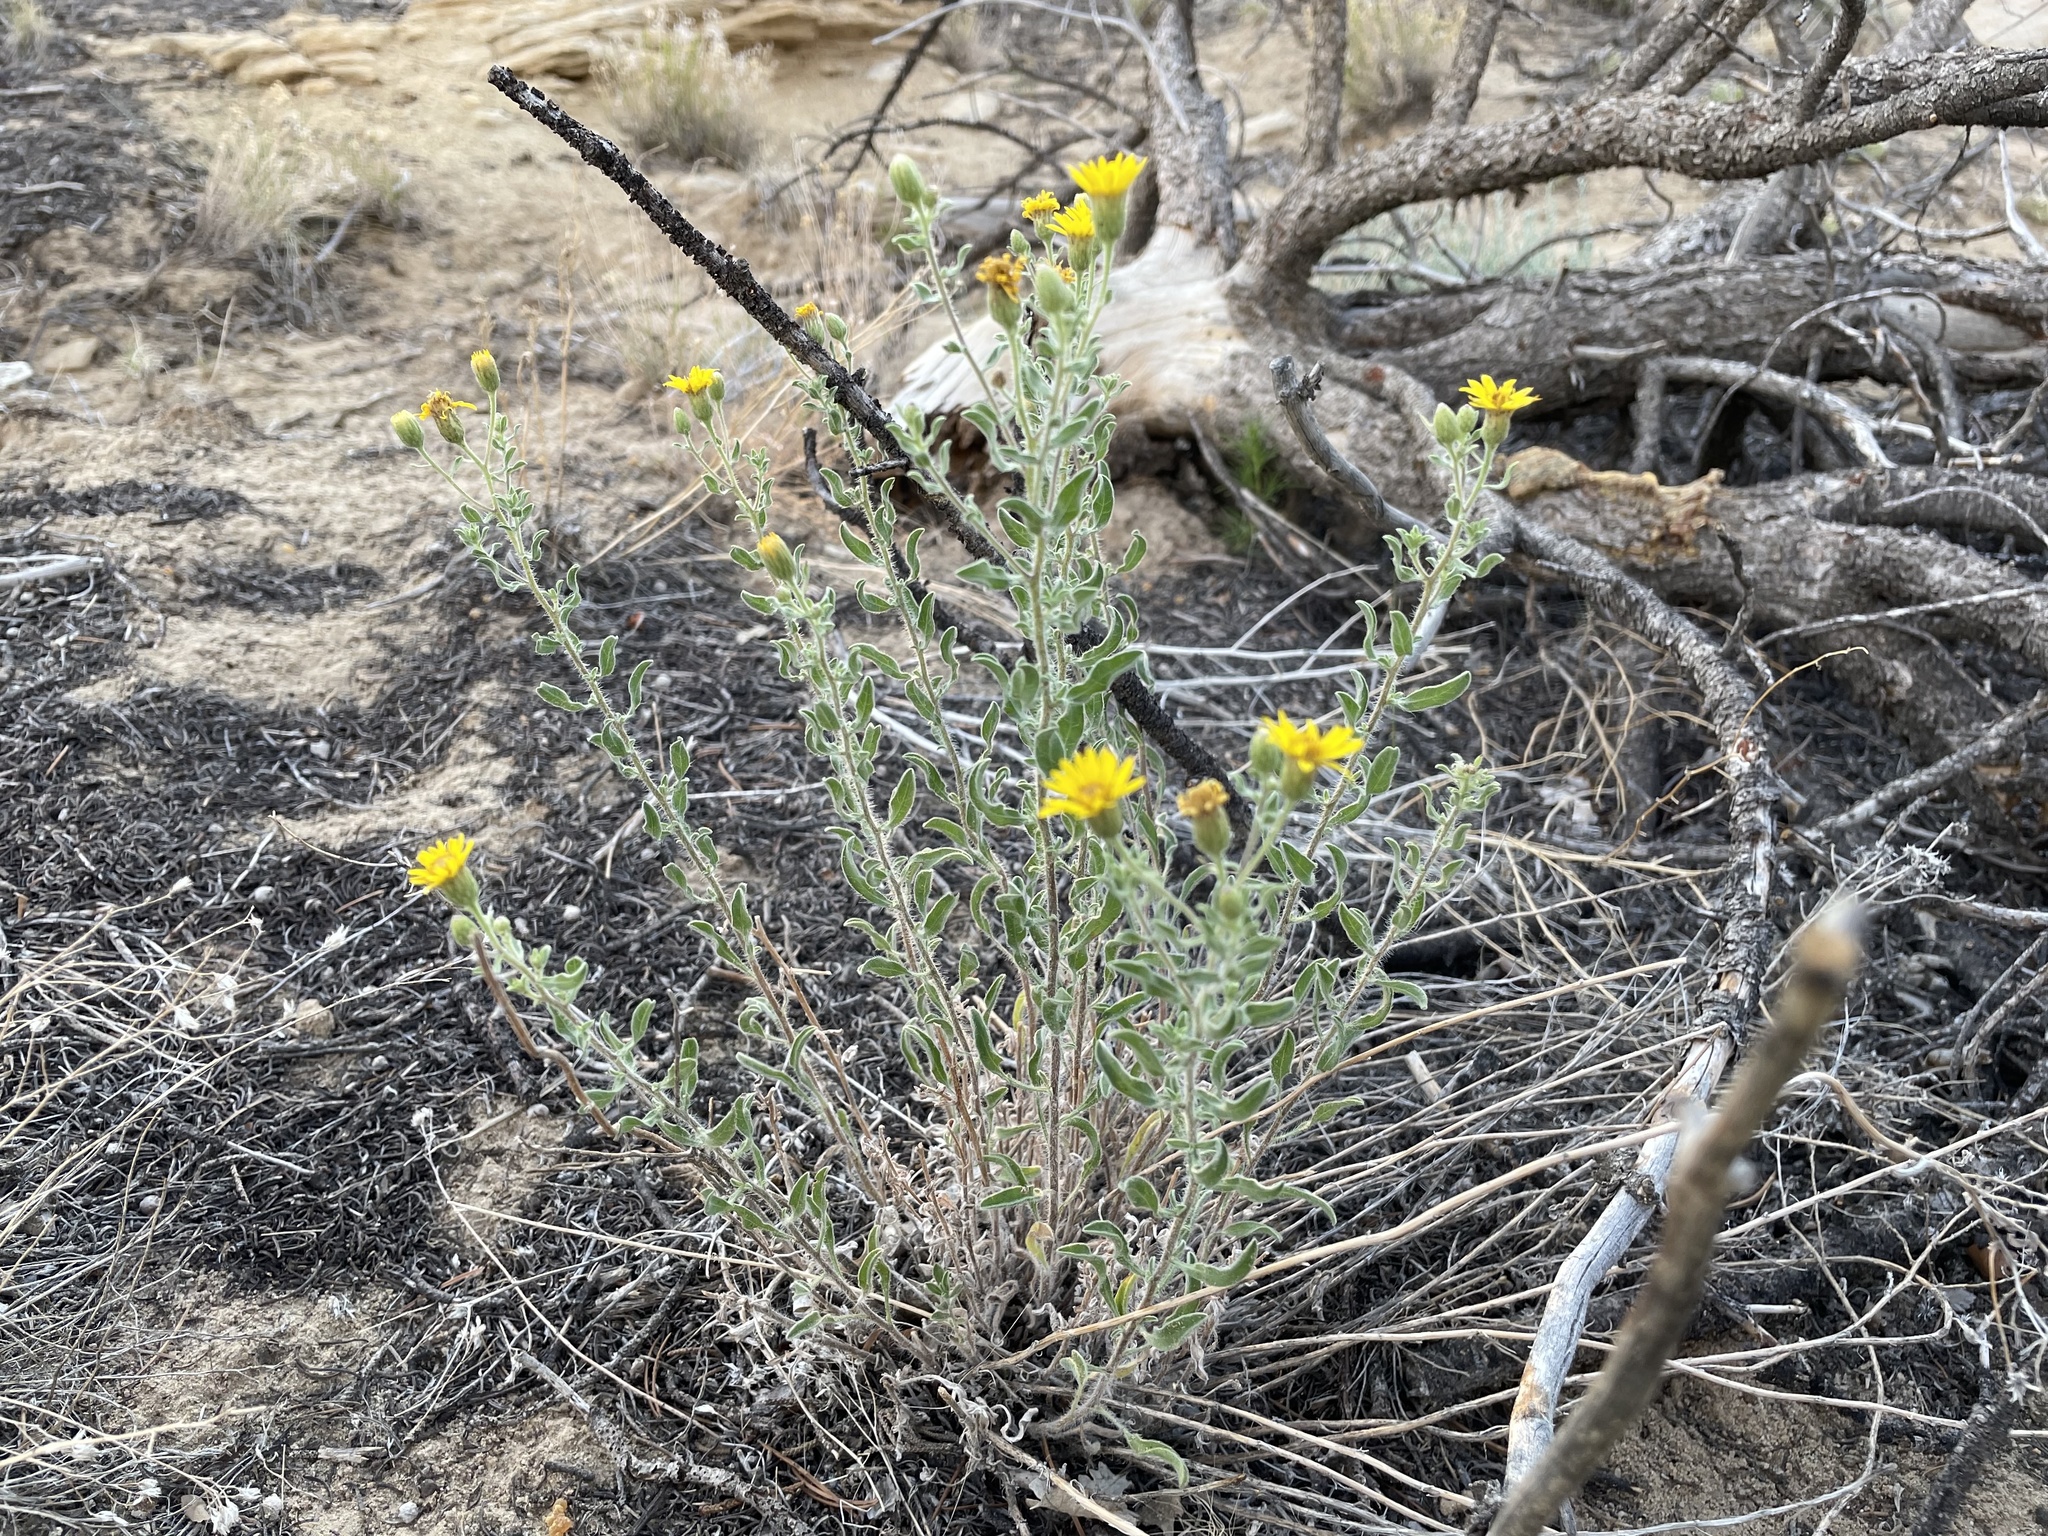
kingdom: Plantae
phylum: Tracheophyta
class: Magnoliopsida
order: Asterales
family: Asteraceae
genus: Heterotheca
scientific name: Heterotheca hirsutissima
